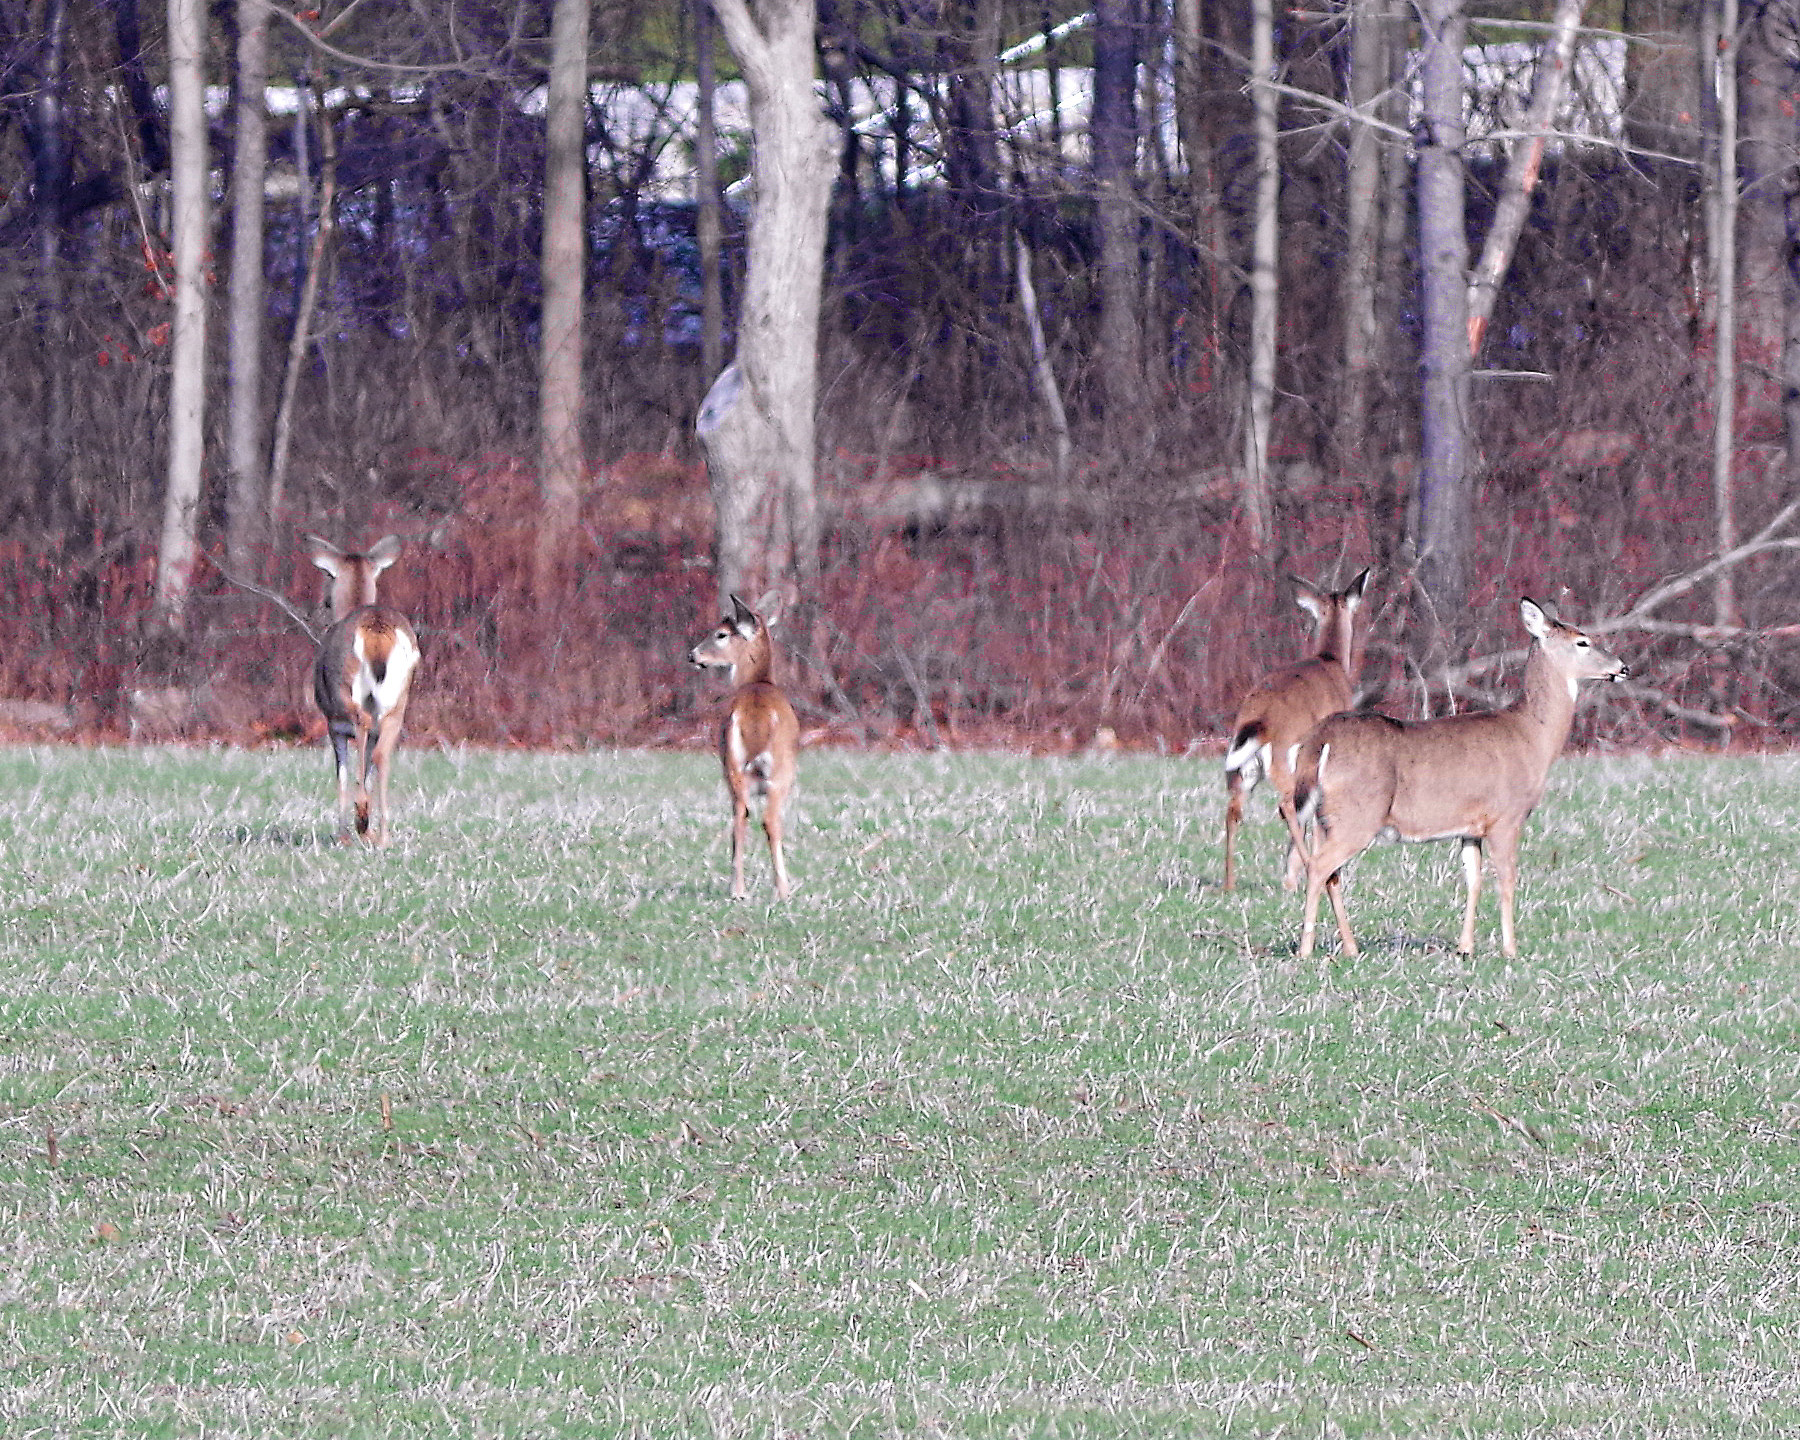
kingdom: Animalia
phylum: Chordata
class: Mammalia
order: Artiodactyla
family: Cervidae
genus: Odocoileus
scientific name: Odocoileus virginianus
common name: White-tailed deer
